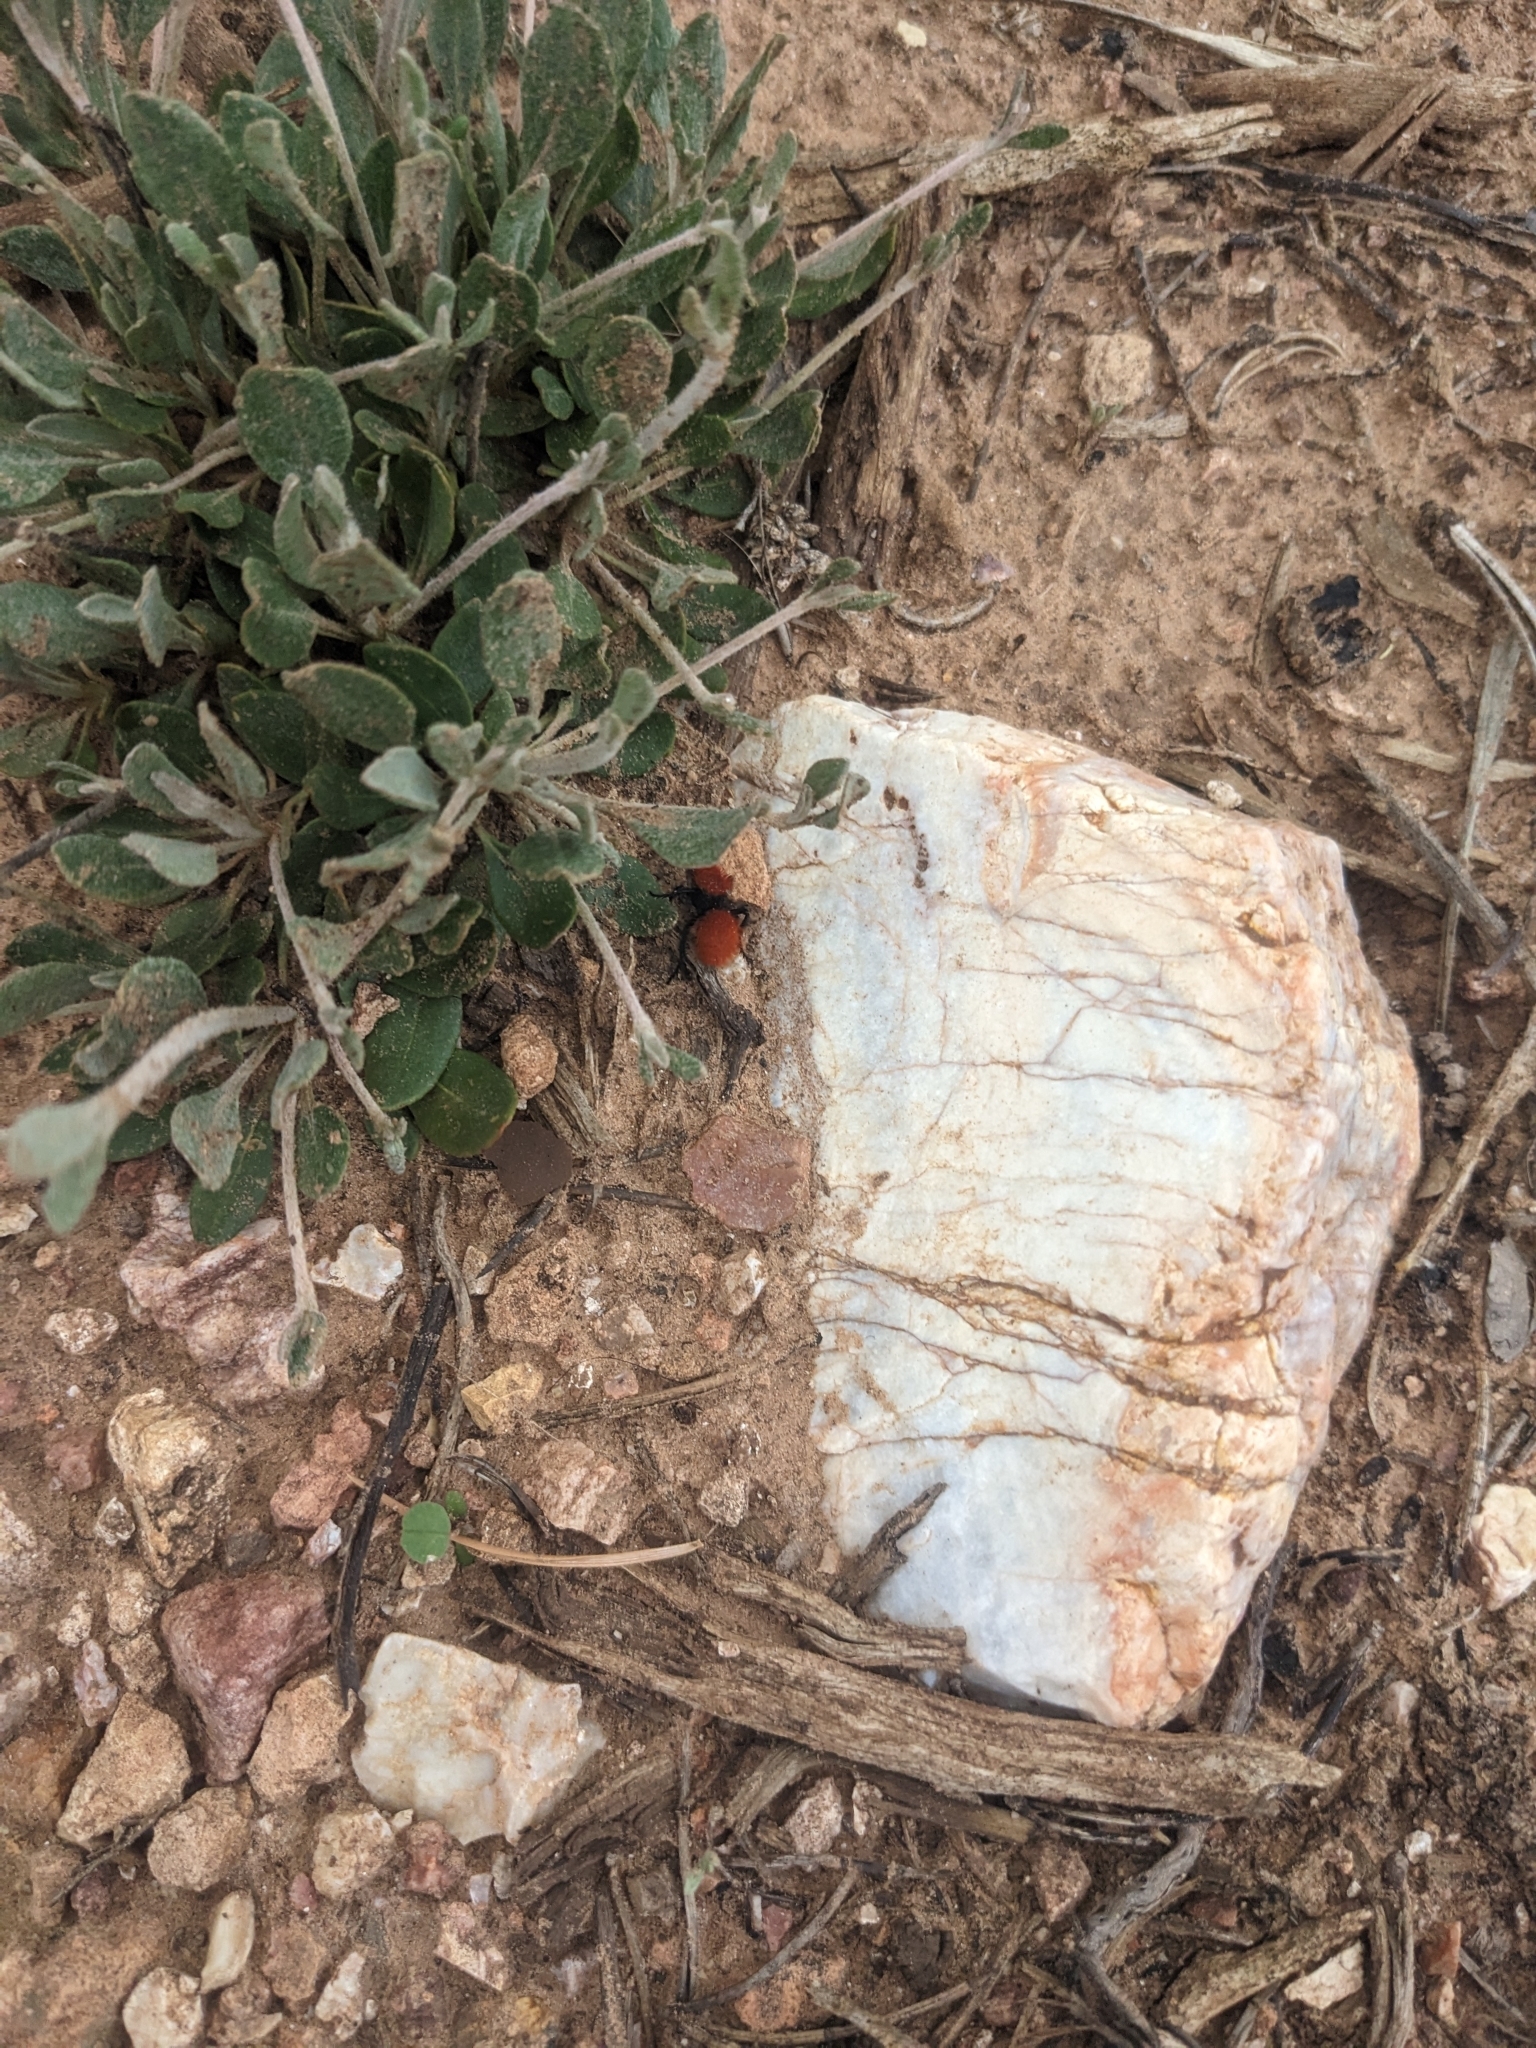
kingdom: Animalia
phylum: Arthropoda
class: Insecta
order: Hymenoptera
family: Mutillidae
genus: Dasymutilla
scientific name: Dasymutilla vestita
